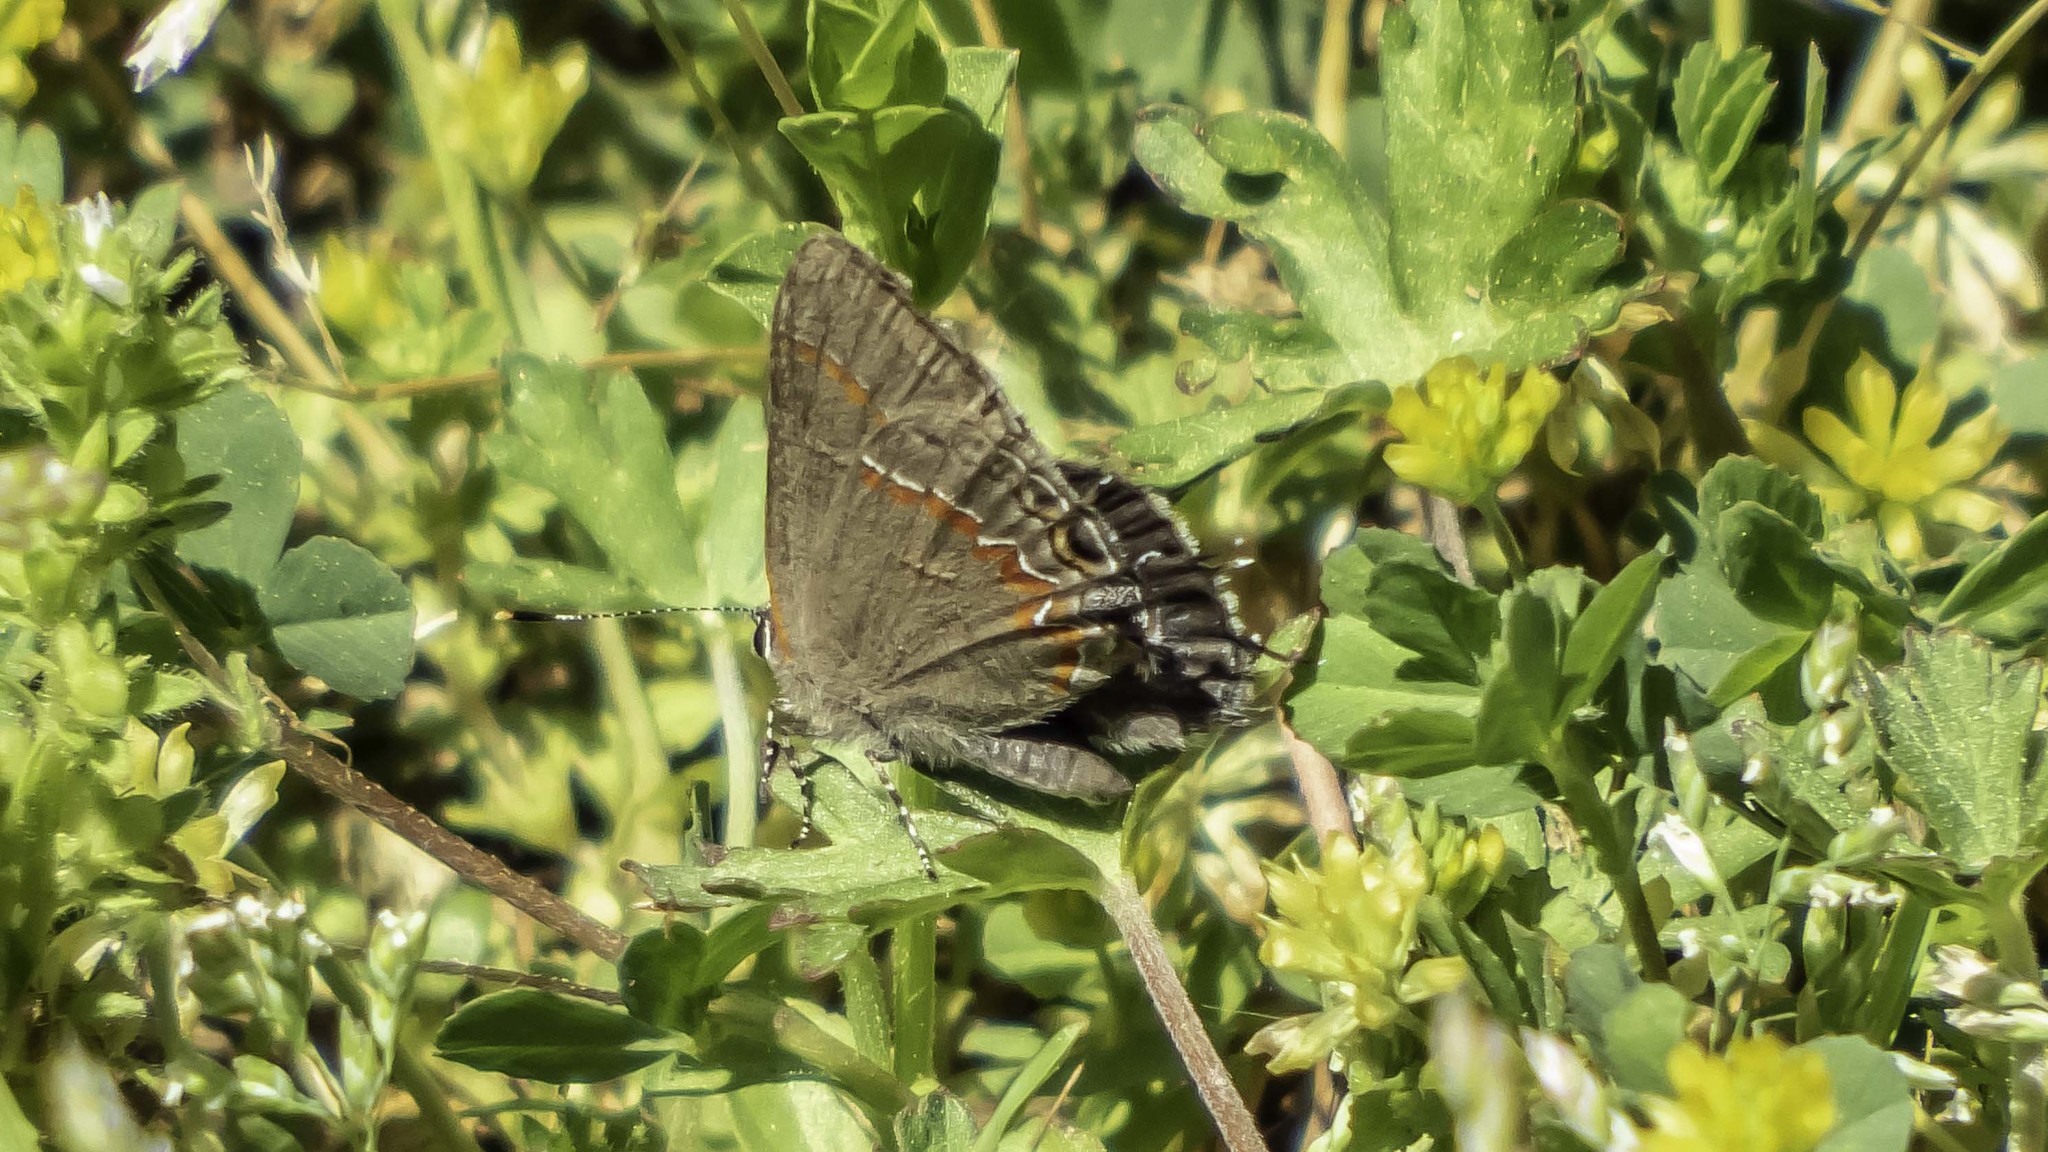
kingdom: Animalia
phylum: Arthropoda
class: Insecta
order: Lepidoptera
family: Lycaenidae
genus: Calycopis
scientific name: Calycopis cecrops
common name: Red-banded hairstreak
